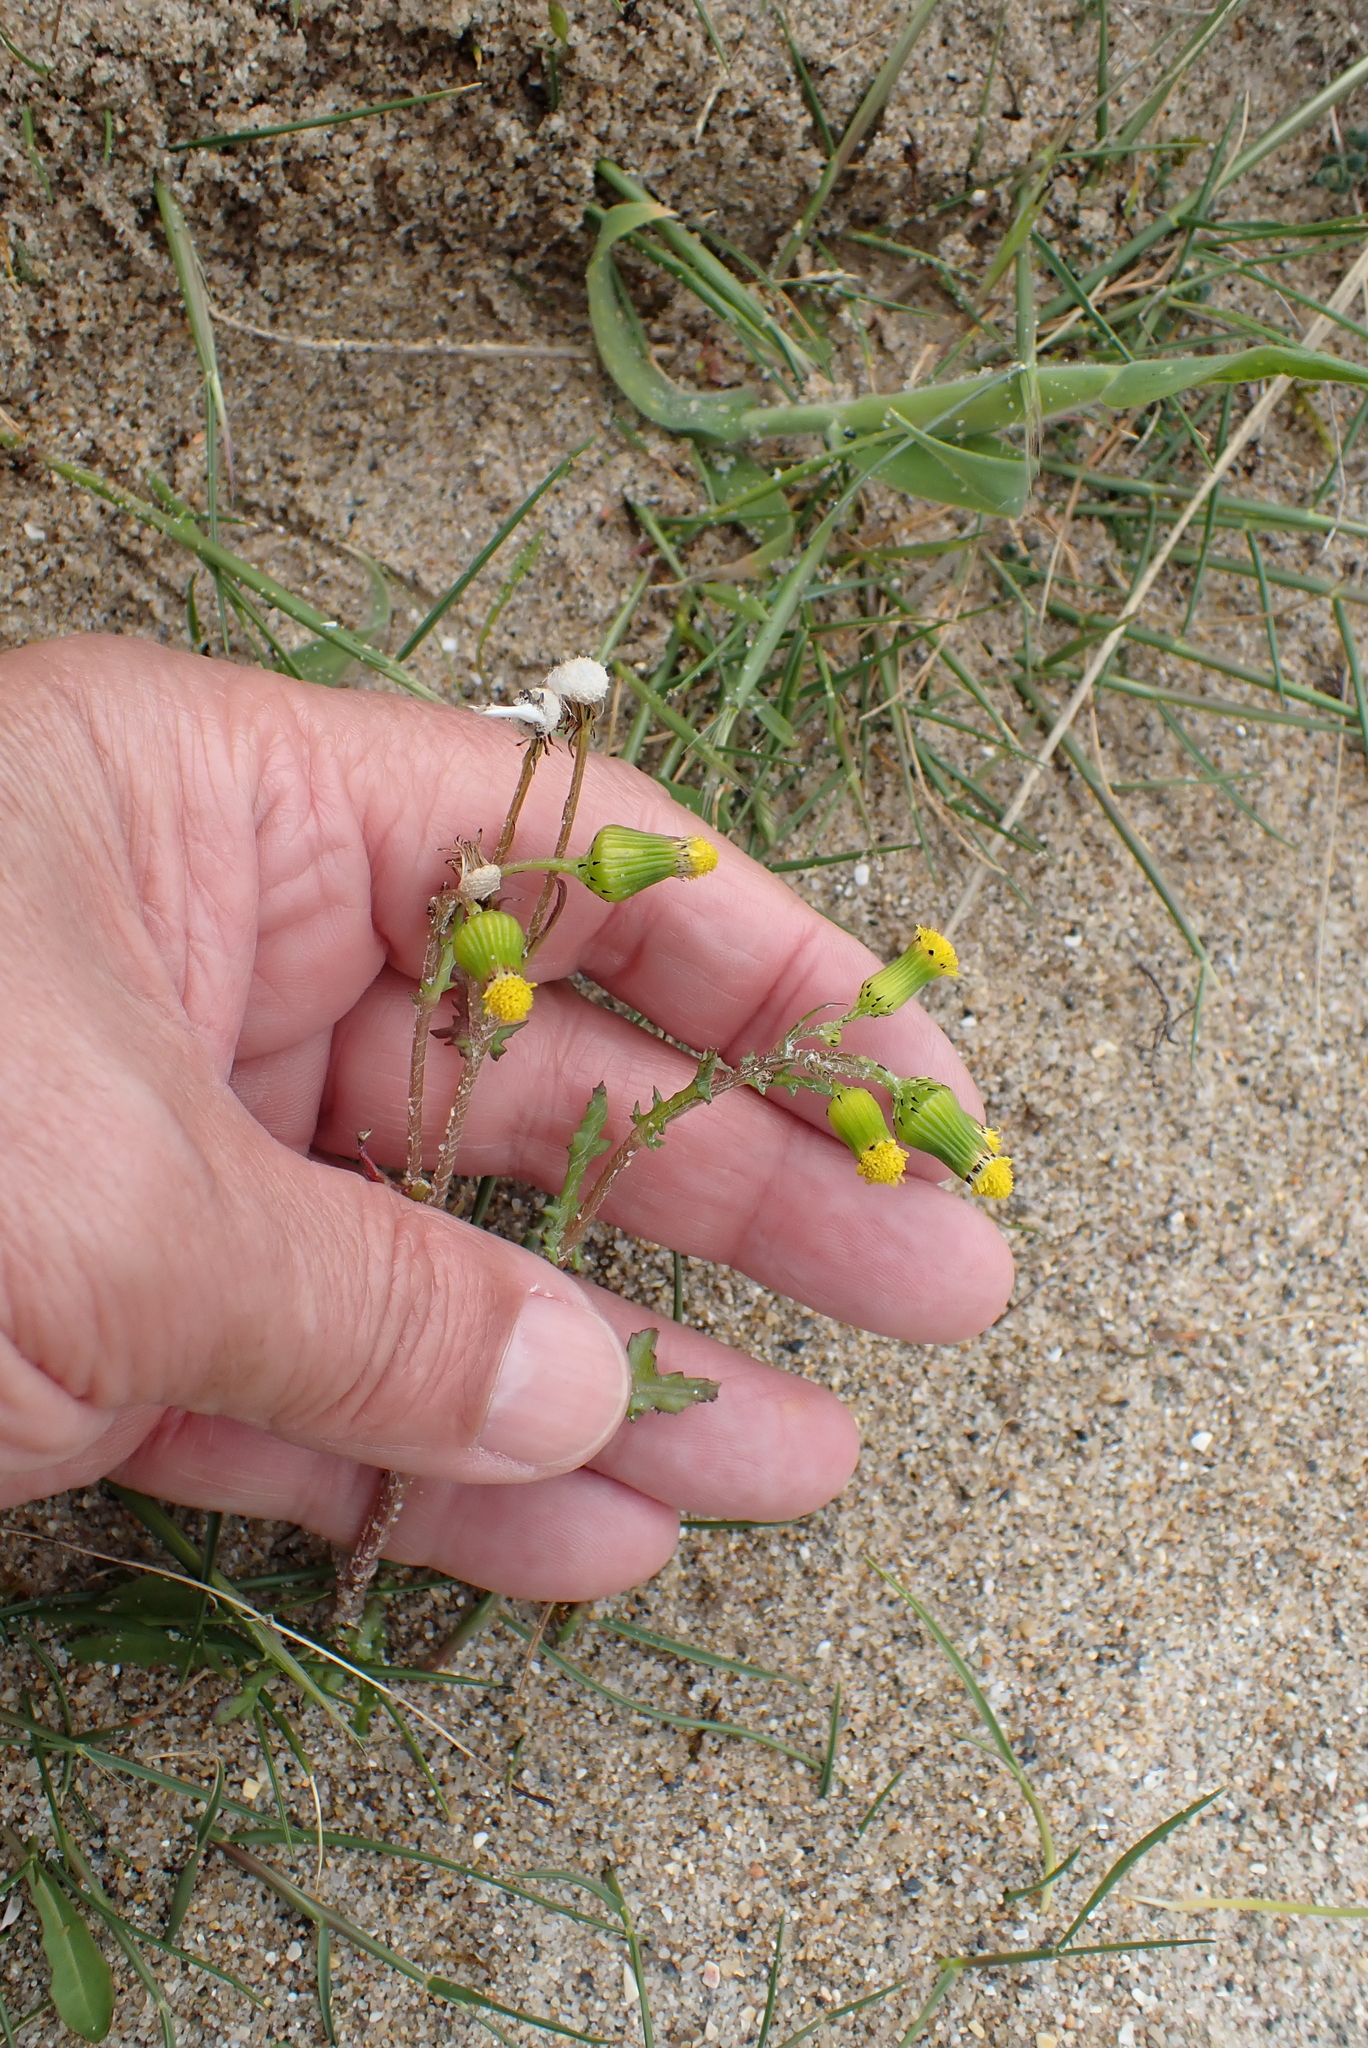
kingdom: Plantae
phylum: Tracheophyta
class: Magnoliopsida
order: Asterales
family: Asteraceae
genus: Senecio
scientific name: Senecio vulgaris
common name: Old-man-in-the-spring
